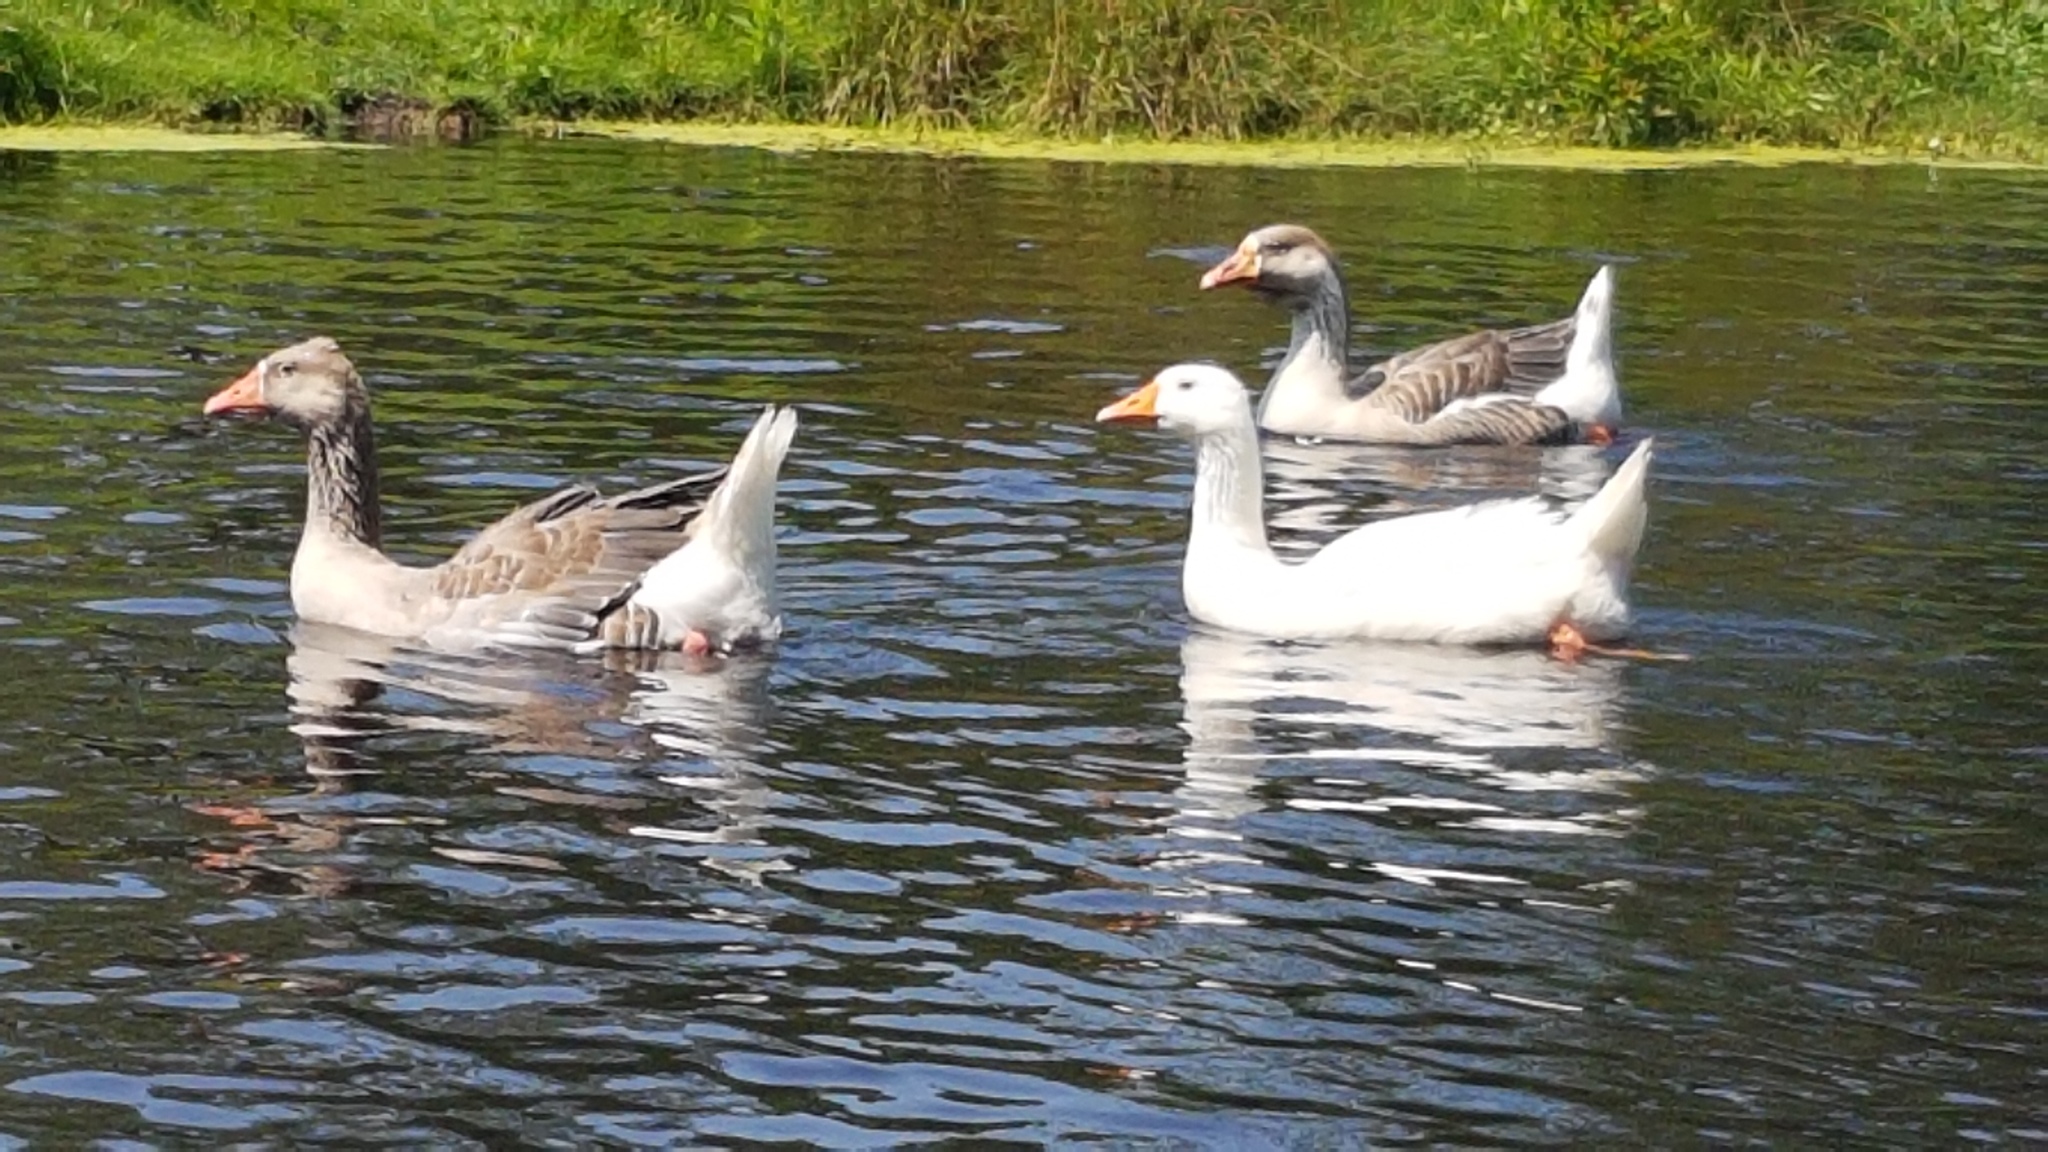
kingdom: Animalia
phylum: Chordata
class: Aves
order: Anseriformes
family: Anatidae
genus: Anser
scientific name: Anser
